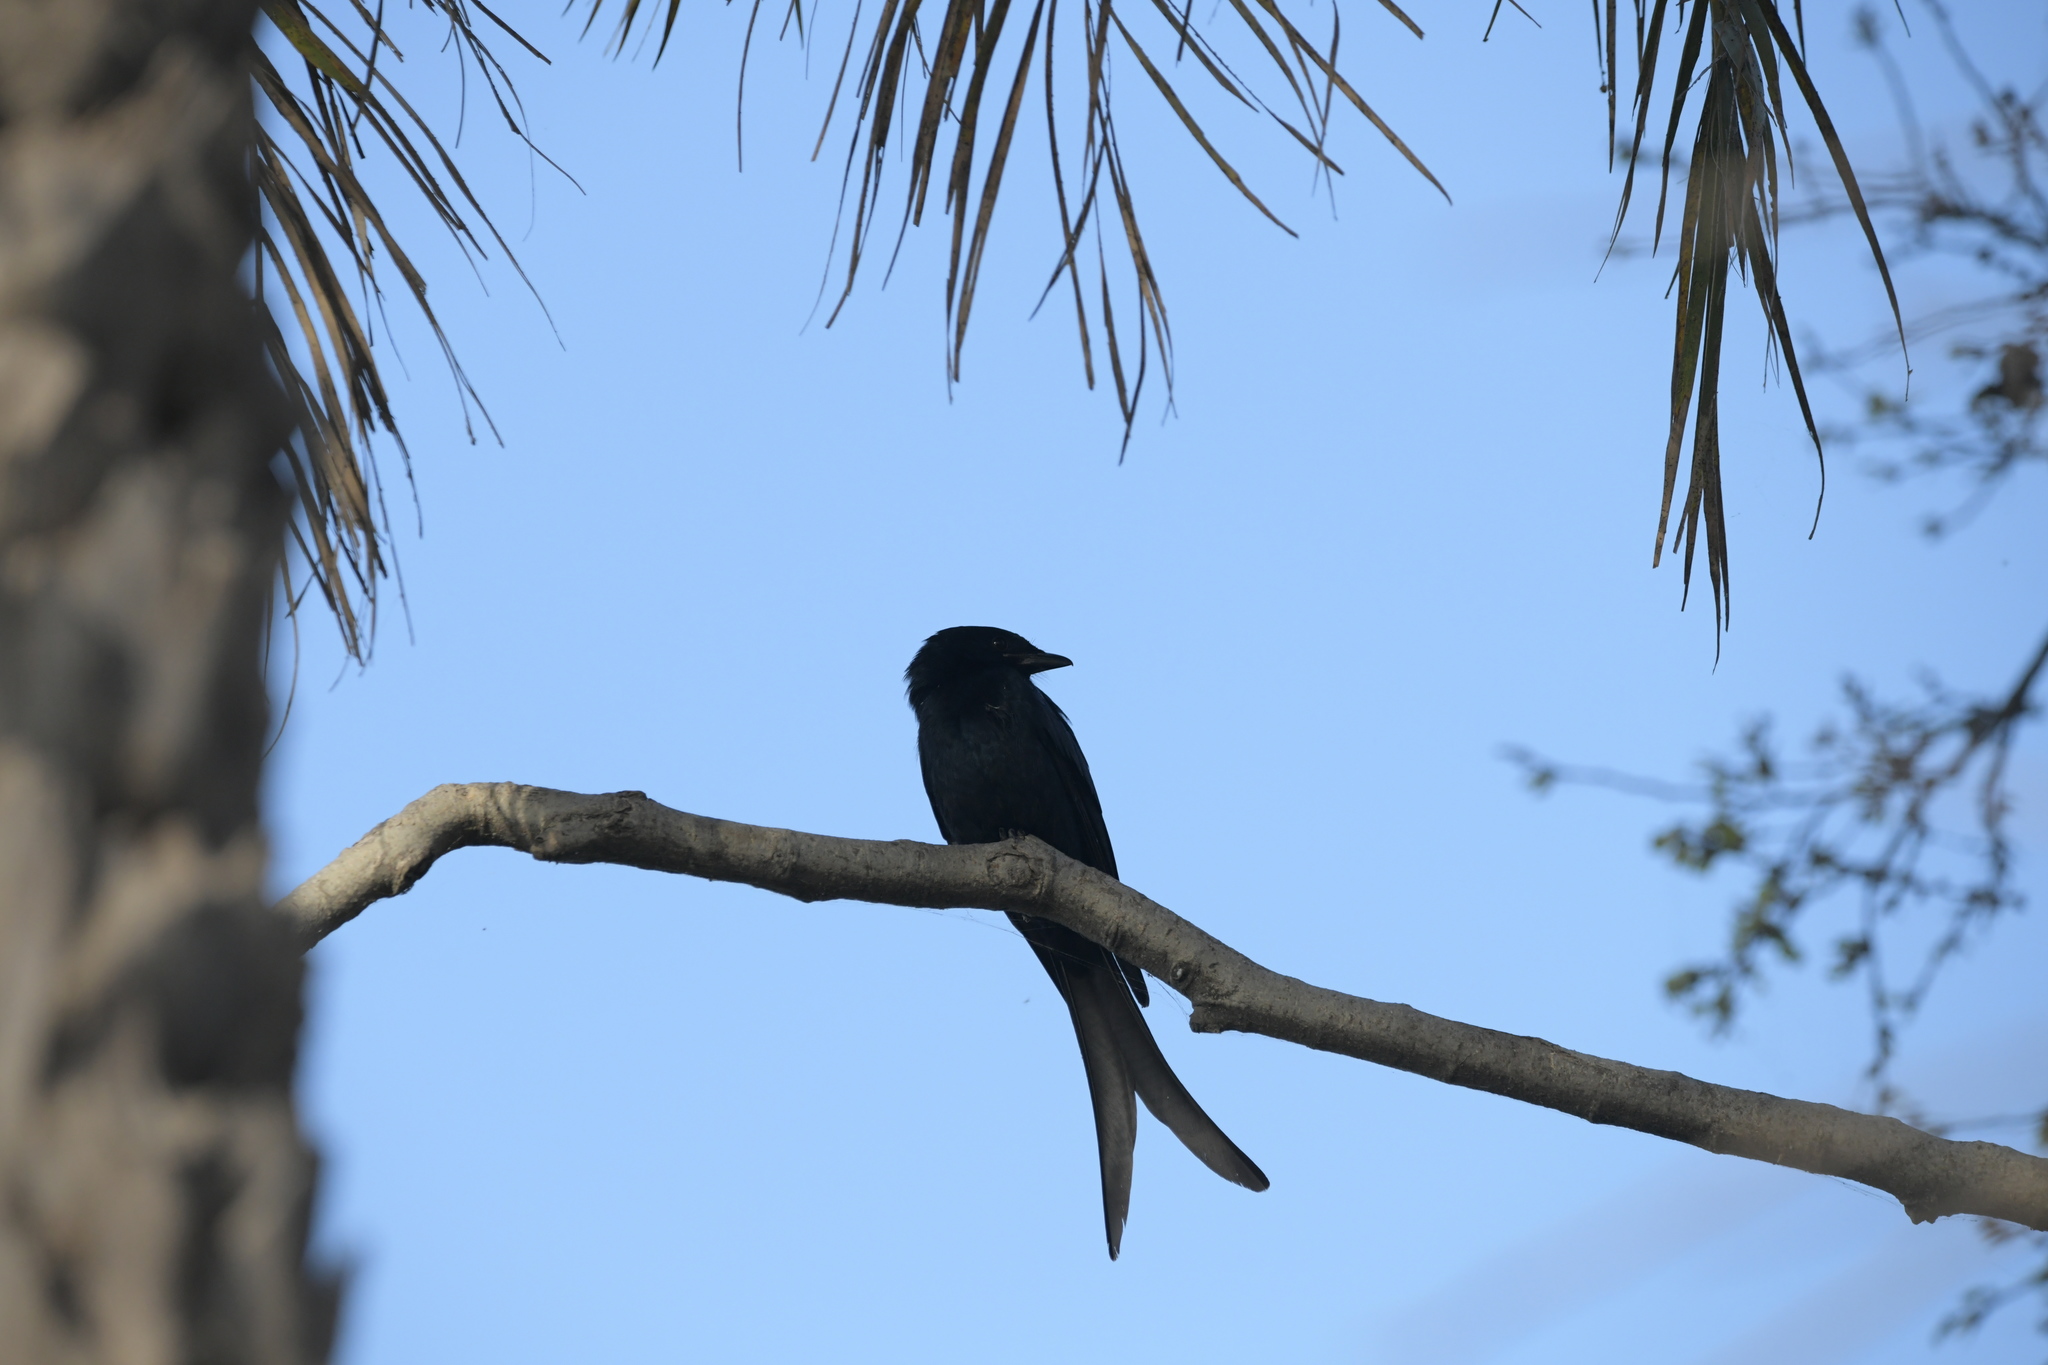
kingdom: Animalia
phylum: Chordata
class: Aves
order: Passeriformes
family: Dicruridae
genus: Dicrurus
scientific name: Dicrurus macrocercus
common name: Black drongo
